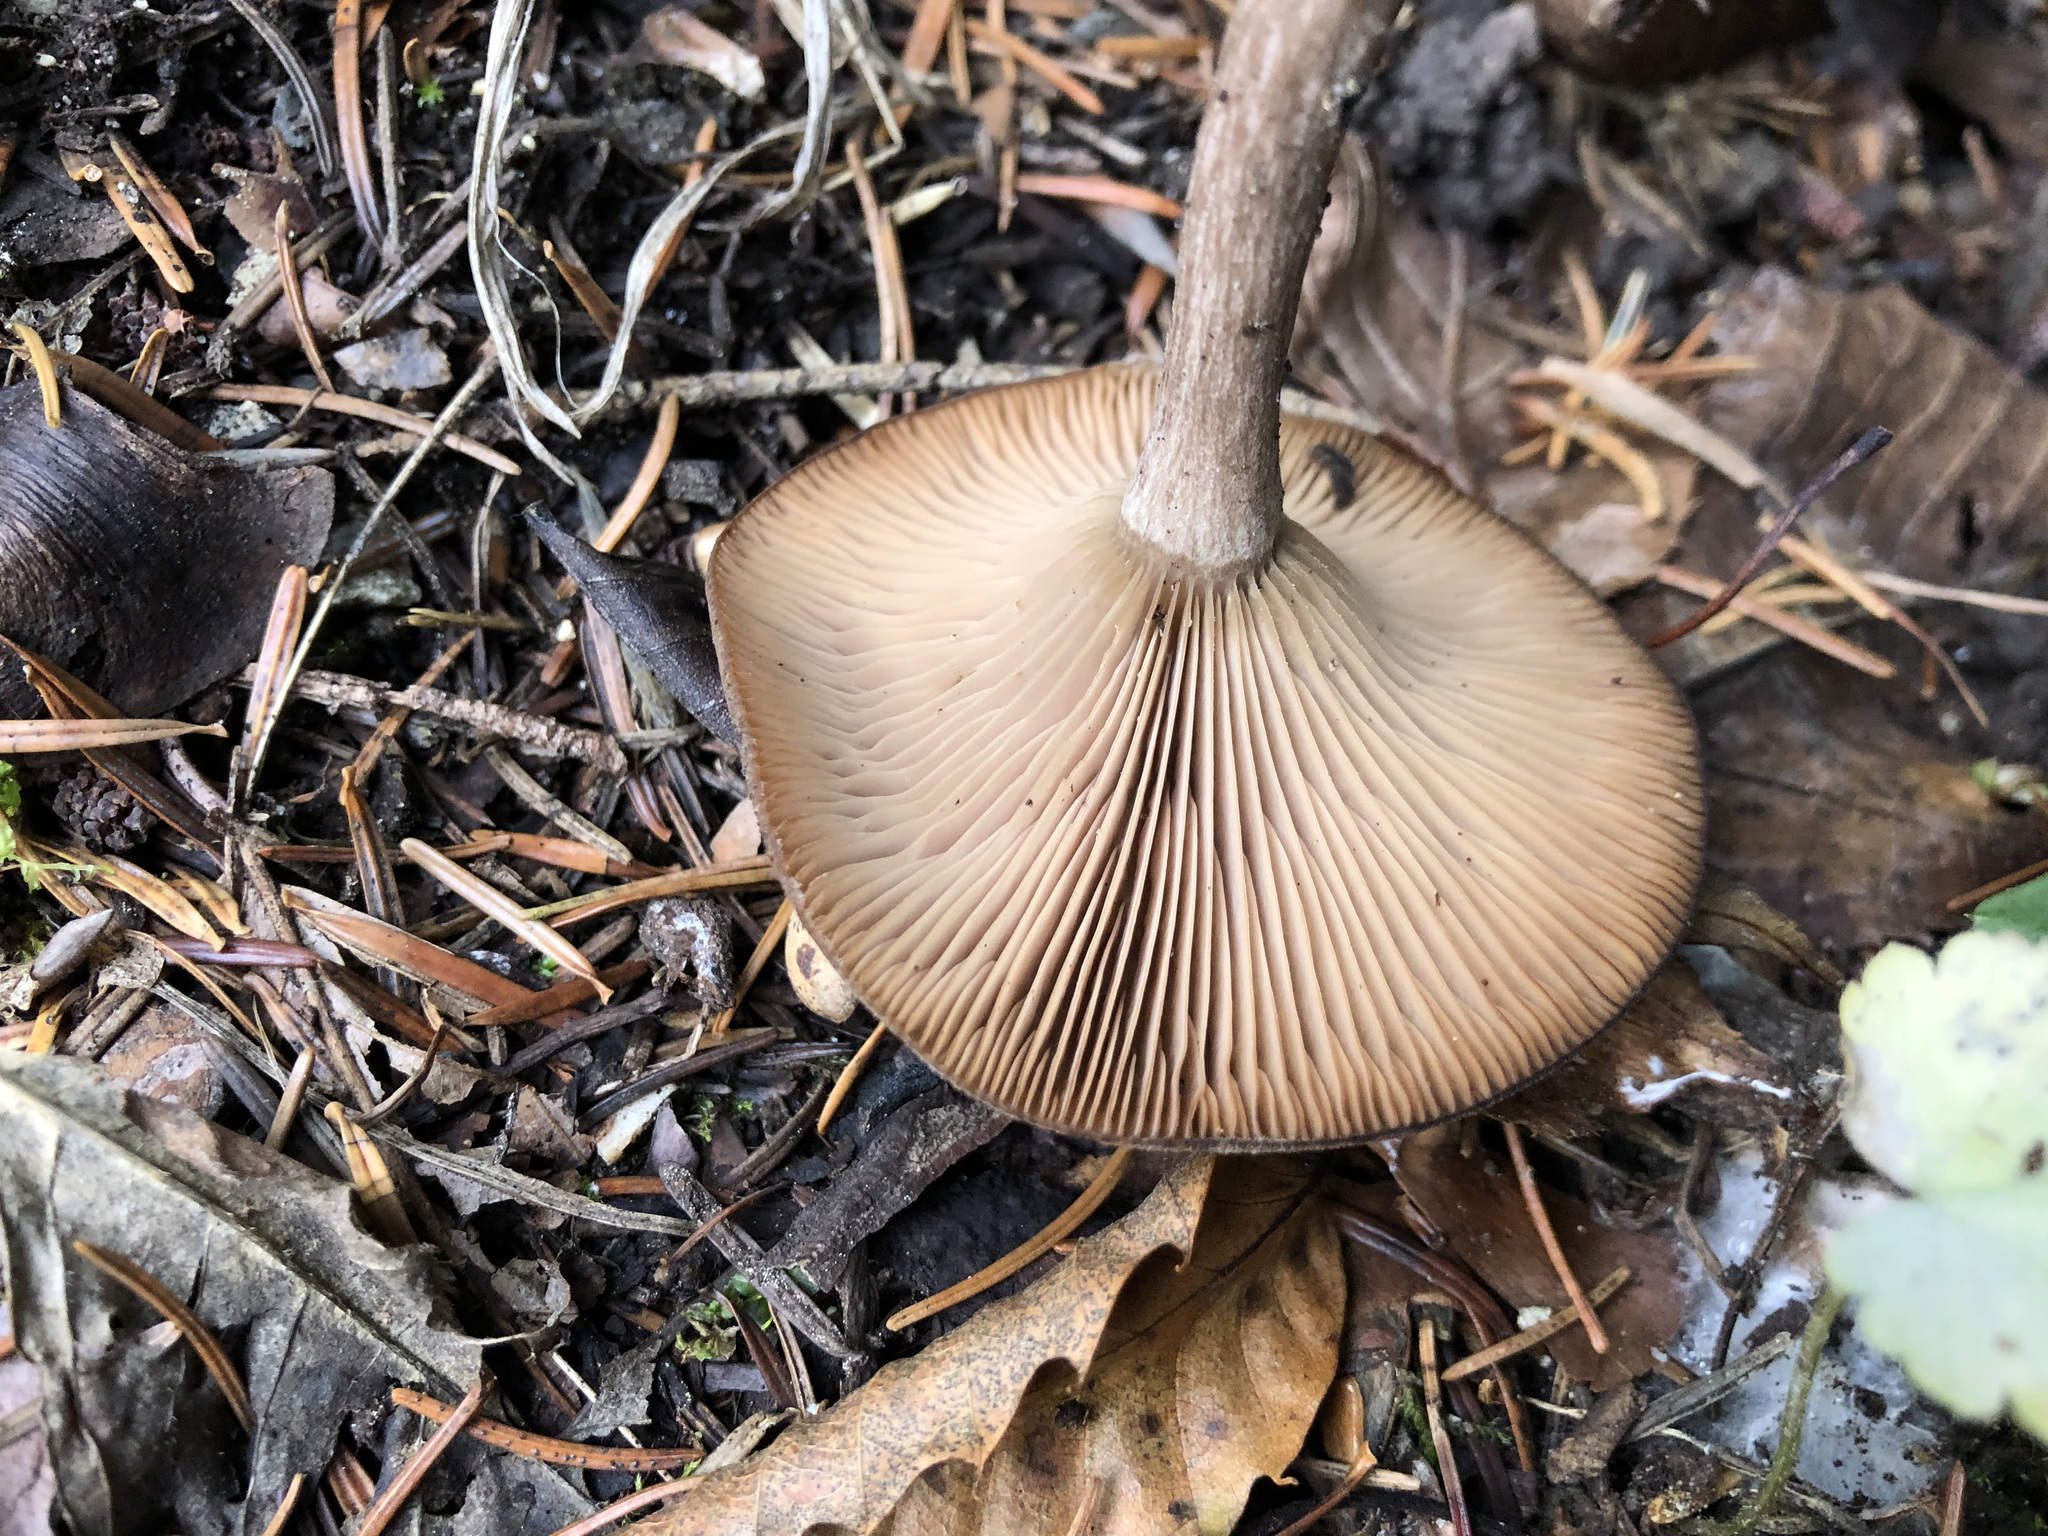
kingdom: Fungi
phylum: Basidiomycota
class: Agaricomycetes
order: Agaricales
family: Pseudoclitocybaceae
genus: Pseudoclitocybe
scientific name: Pseudoclitocybe cyathiformis
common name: Goblet
